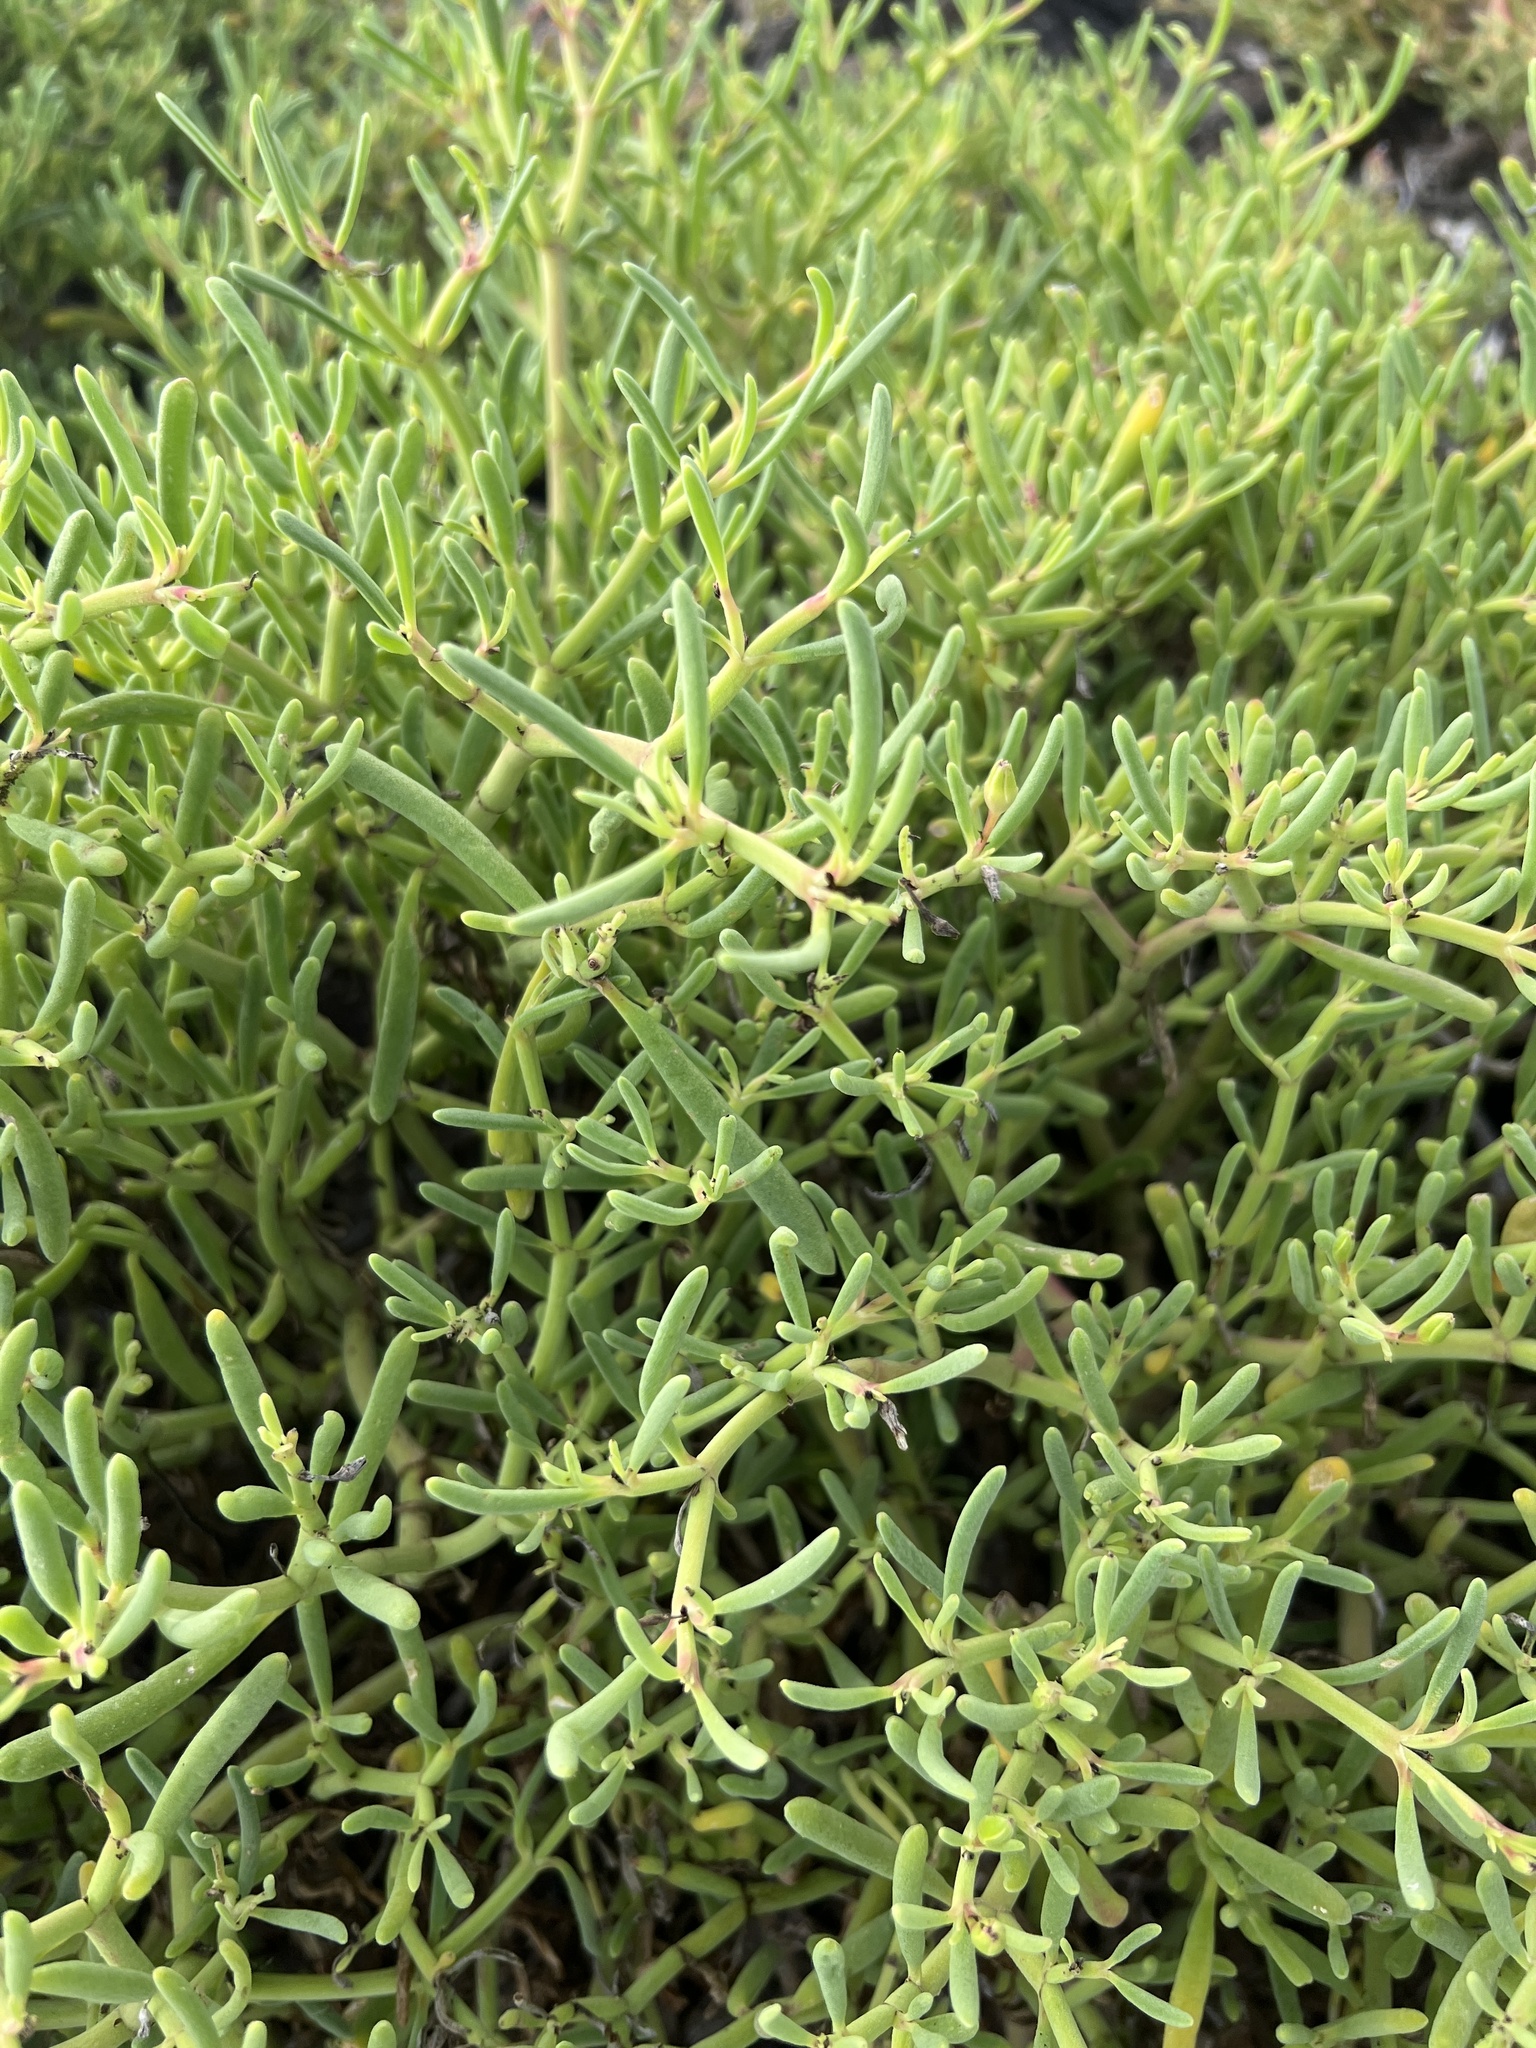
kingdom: Plantae
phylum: Tracheophyta
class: Magnoliopsida
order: Brassicales
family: Bataceae
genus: Batis
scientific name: Batis maritima
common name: Turtleweed
